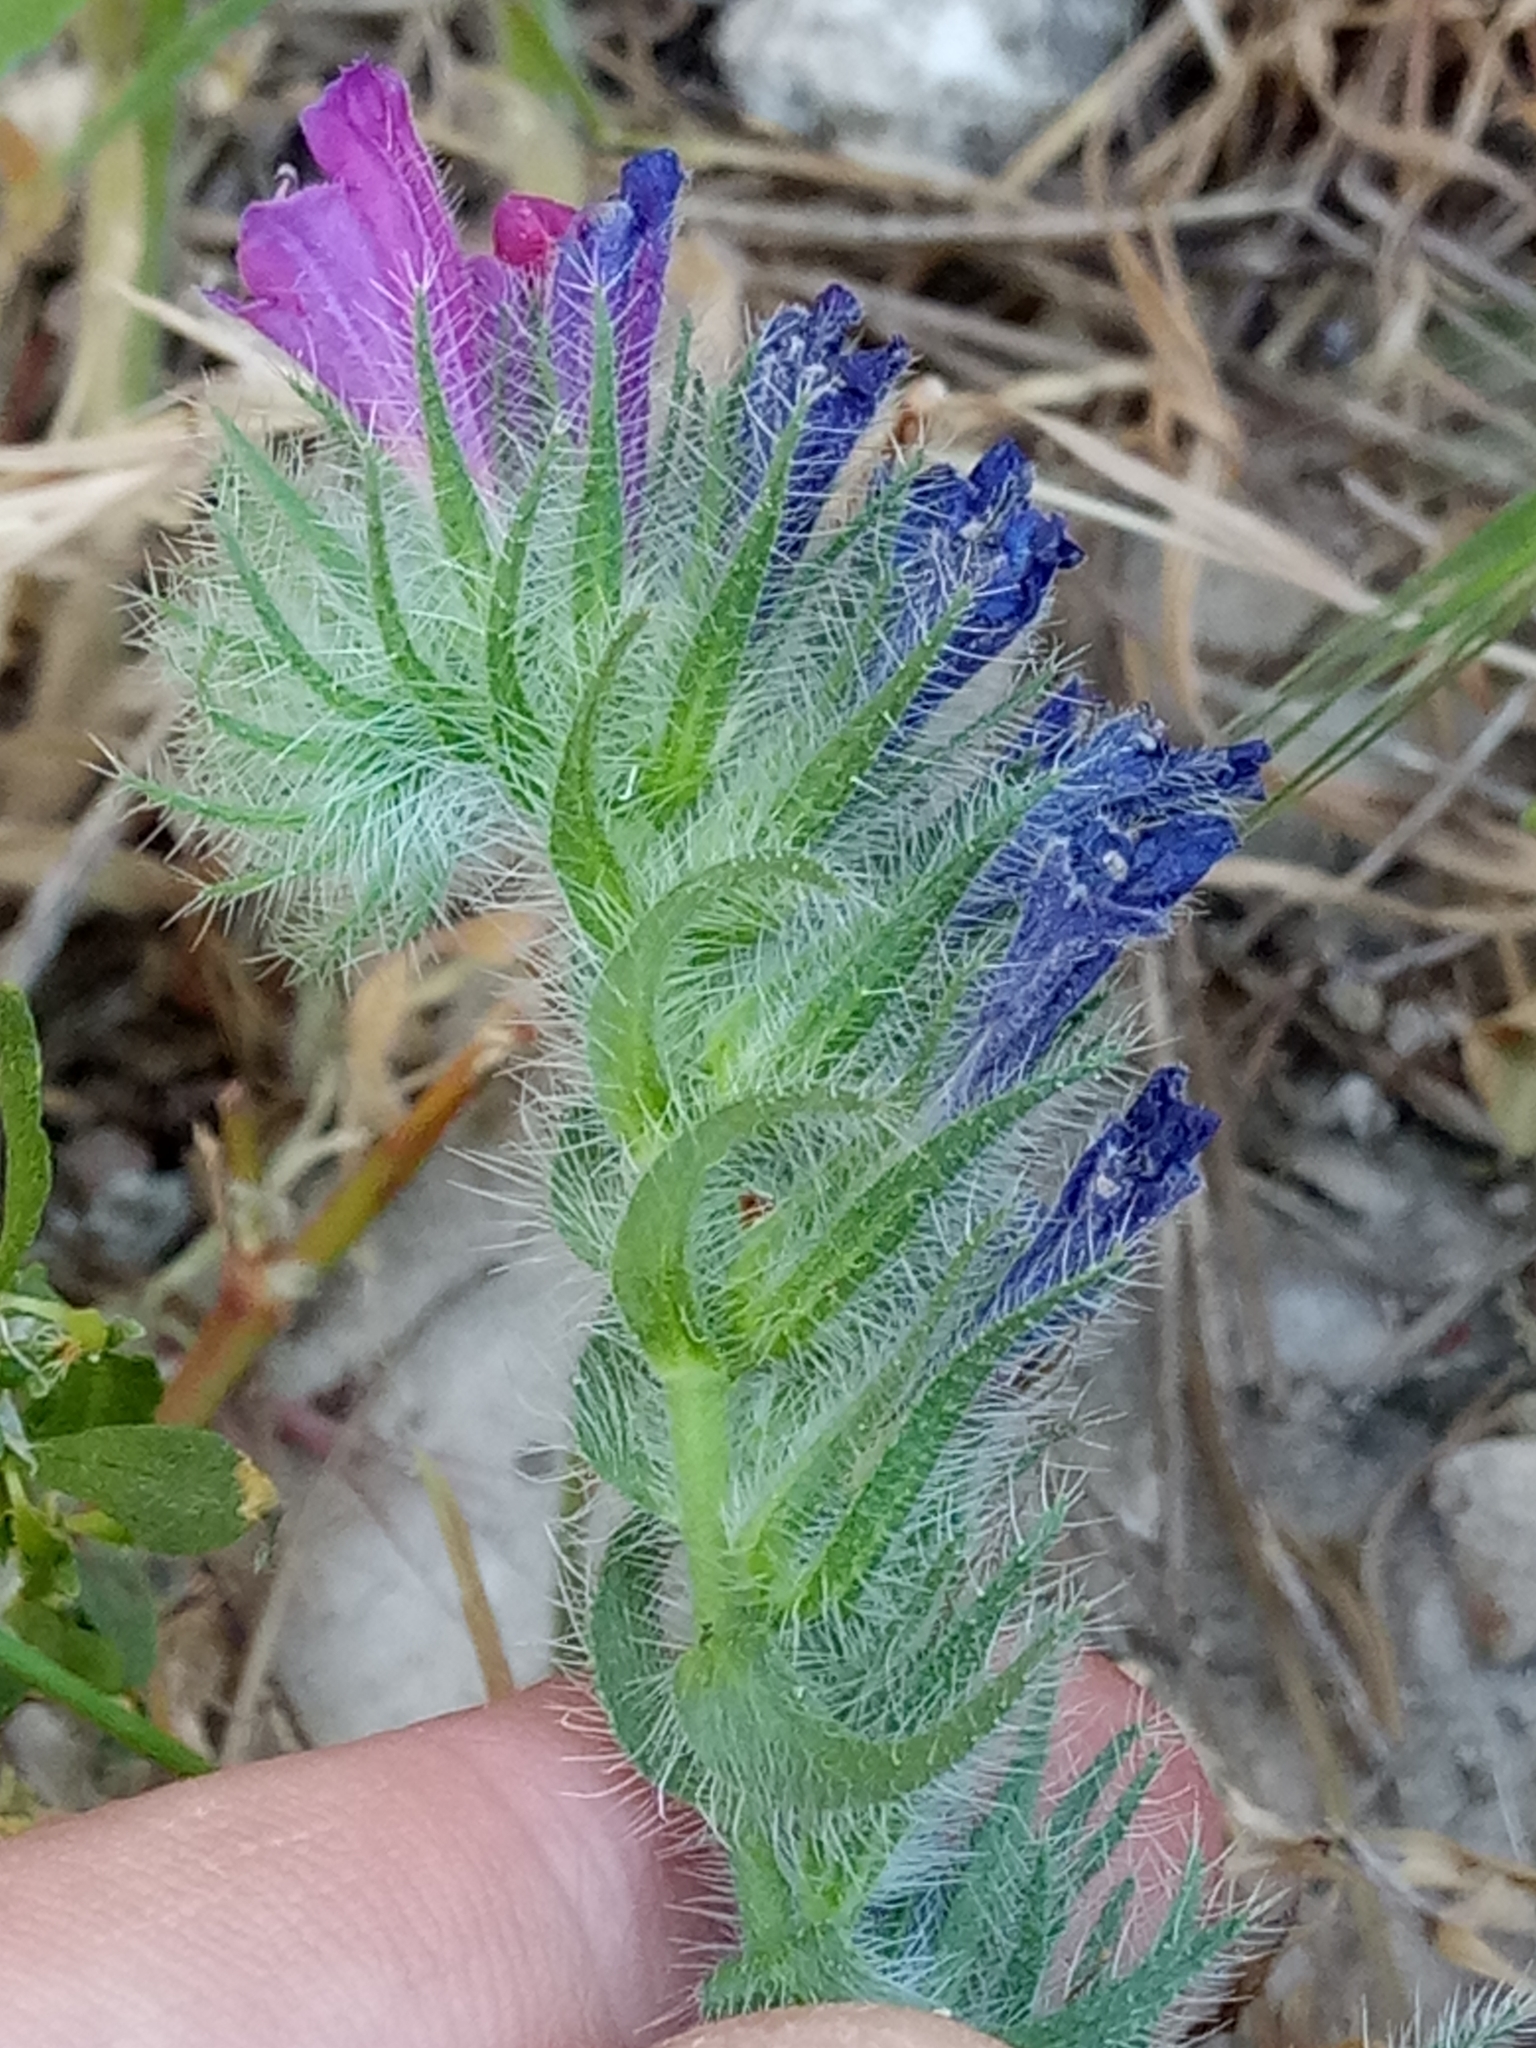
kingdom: Plantae
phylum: Tracheophyta
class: Magnoliopsida
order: Boraginales
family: Boraginaceae
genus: Echium
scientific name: Echium sabulicola
